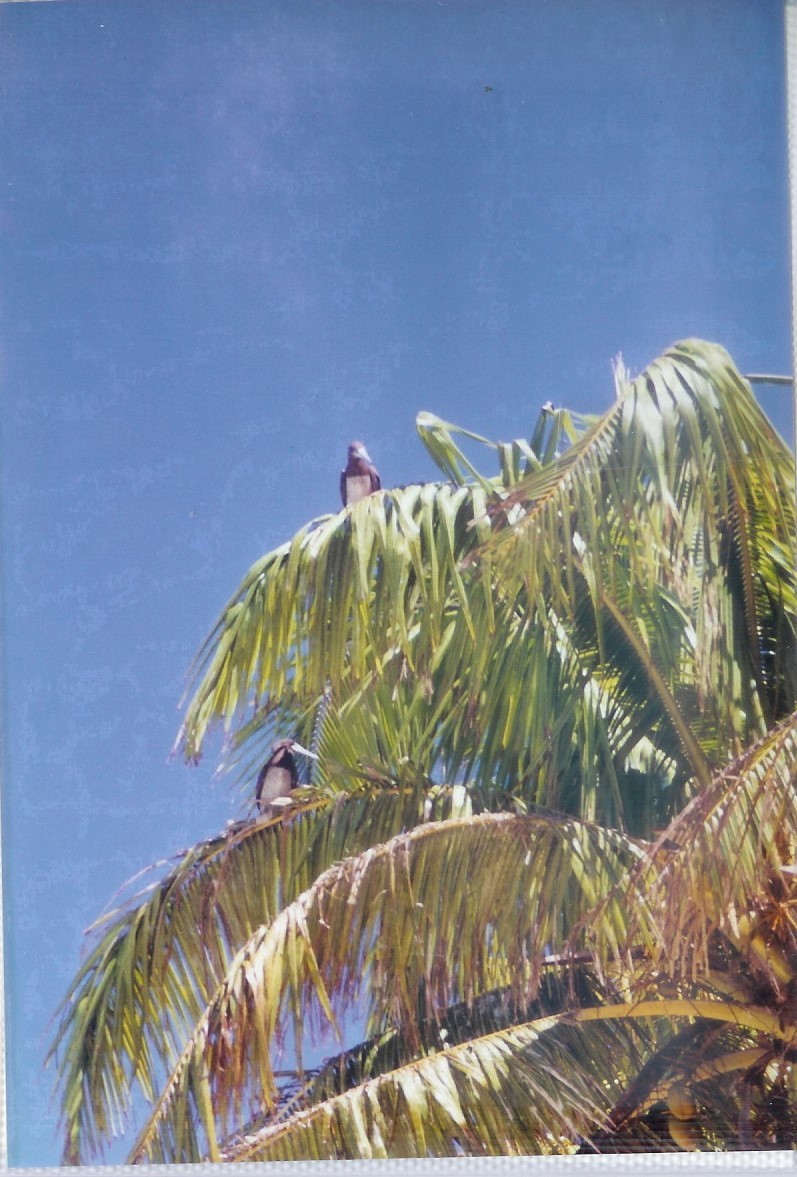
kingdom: Animalia
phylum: Chordata
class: Aves
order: Suliformes
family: Sulidae
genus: Sula
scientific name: Sula leucogaster
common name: Brown booby
